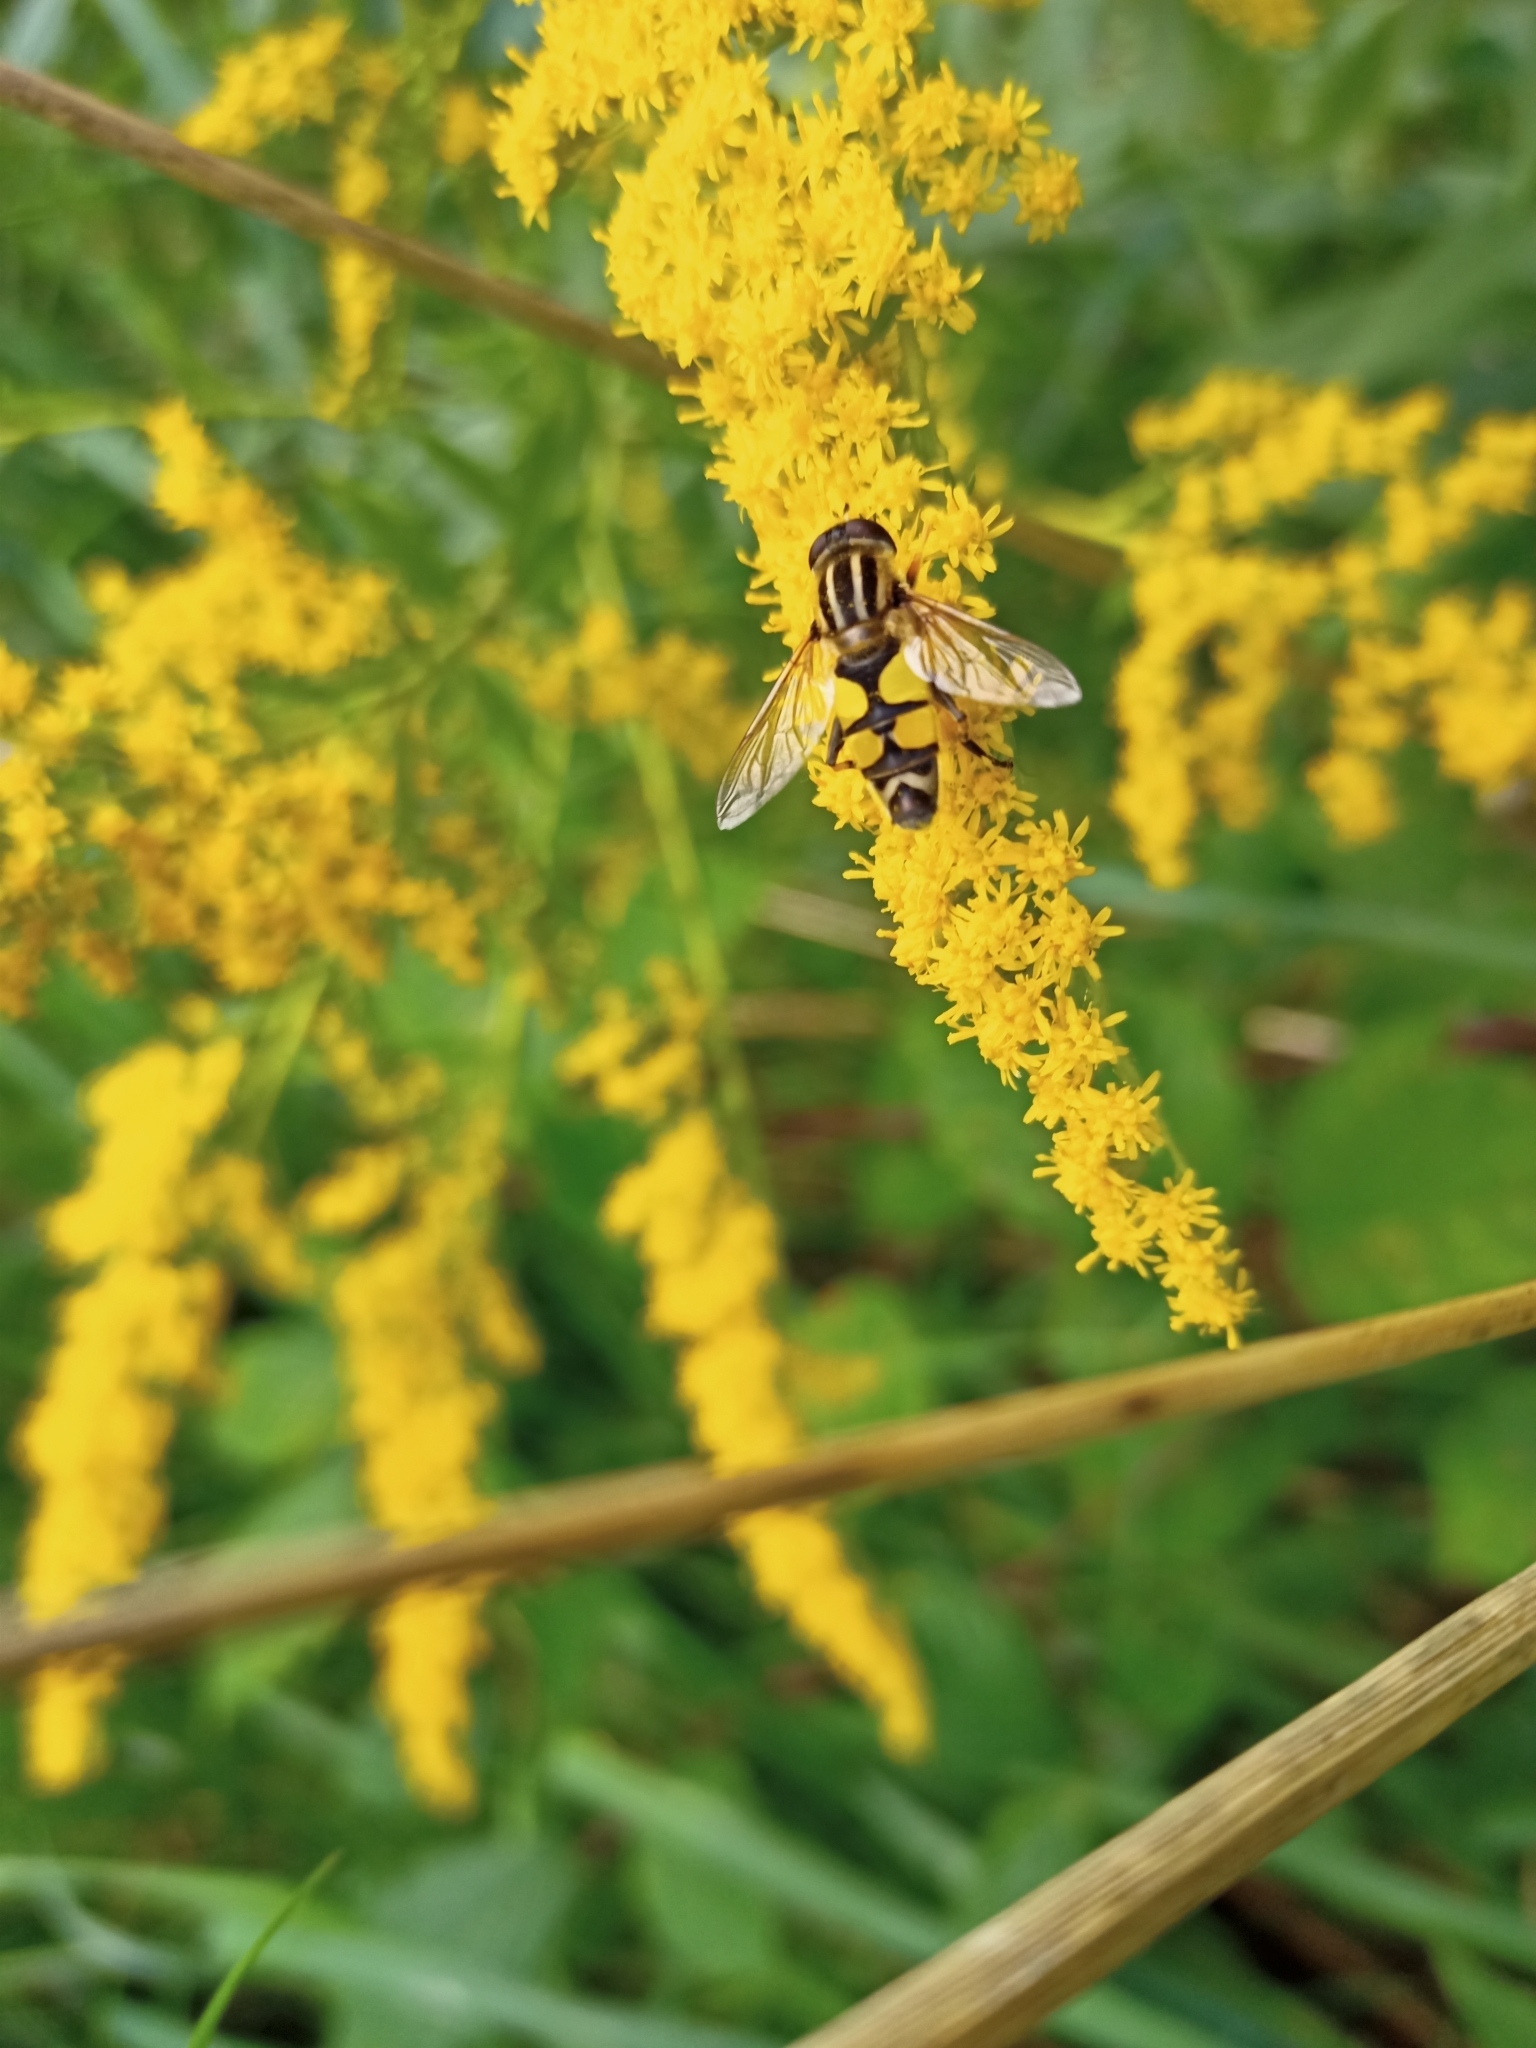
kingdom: Animalia
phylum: Arthropoda
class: Insecta
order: Diptera
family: Syrphidae
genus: Helophilus
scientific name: Helophilus trivittatus
